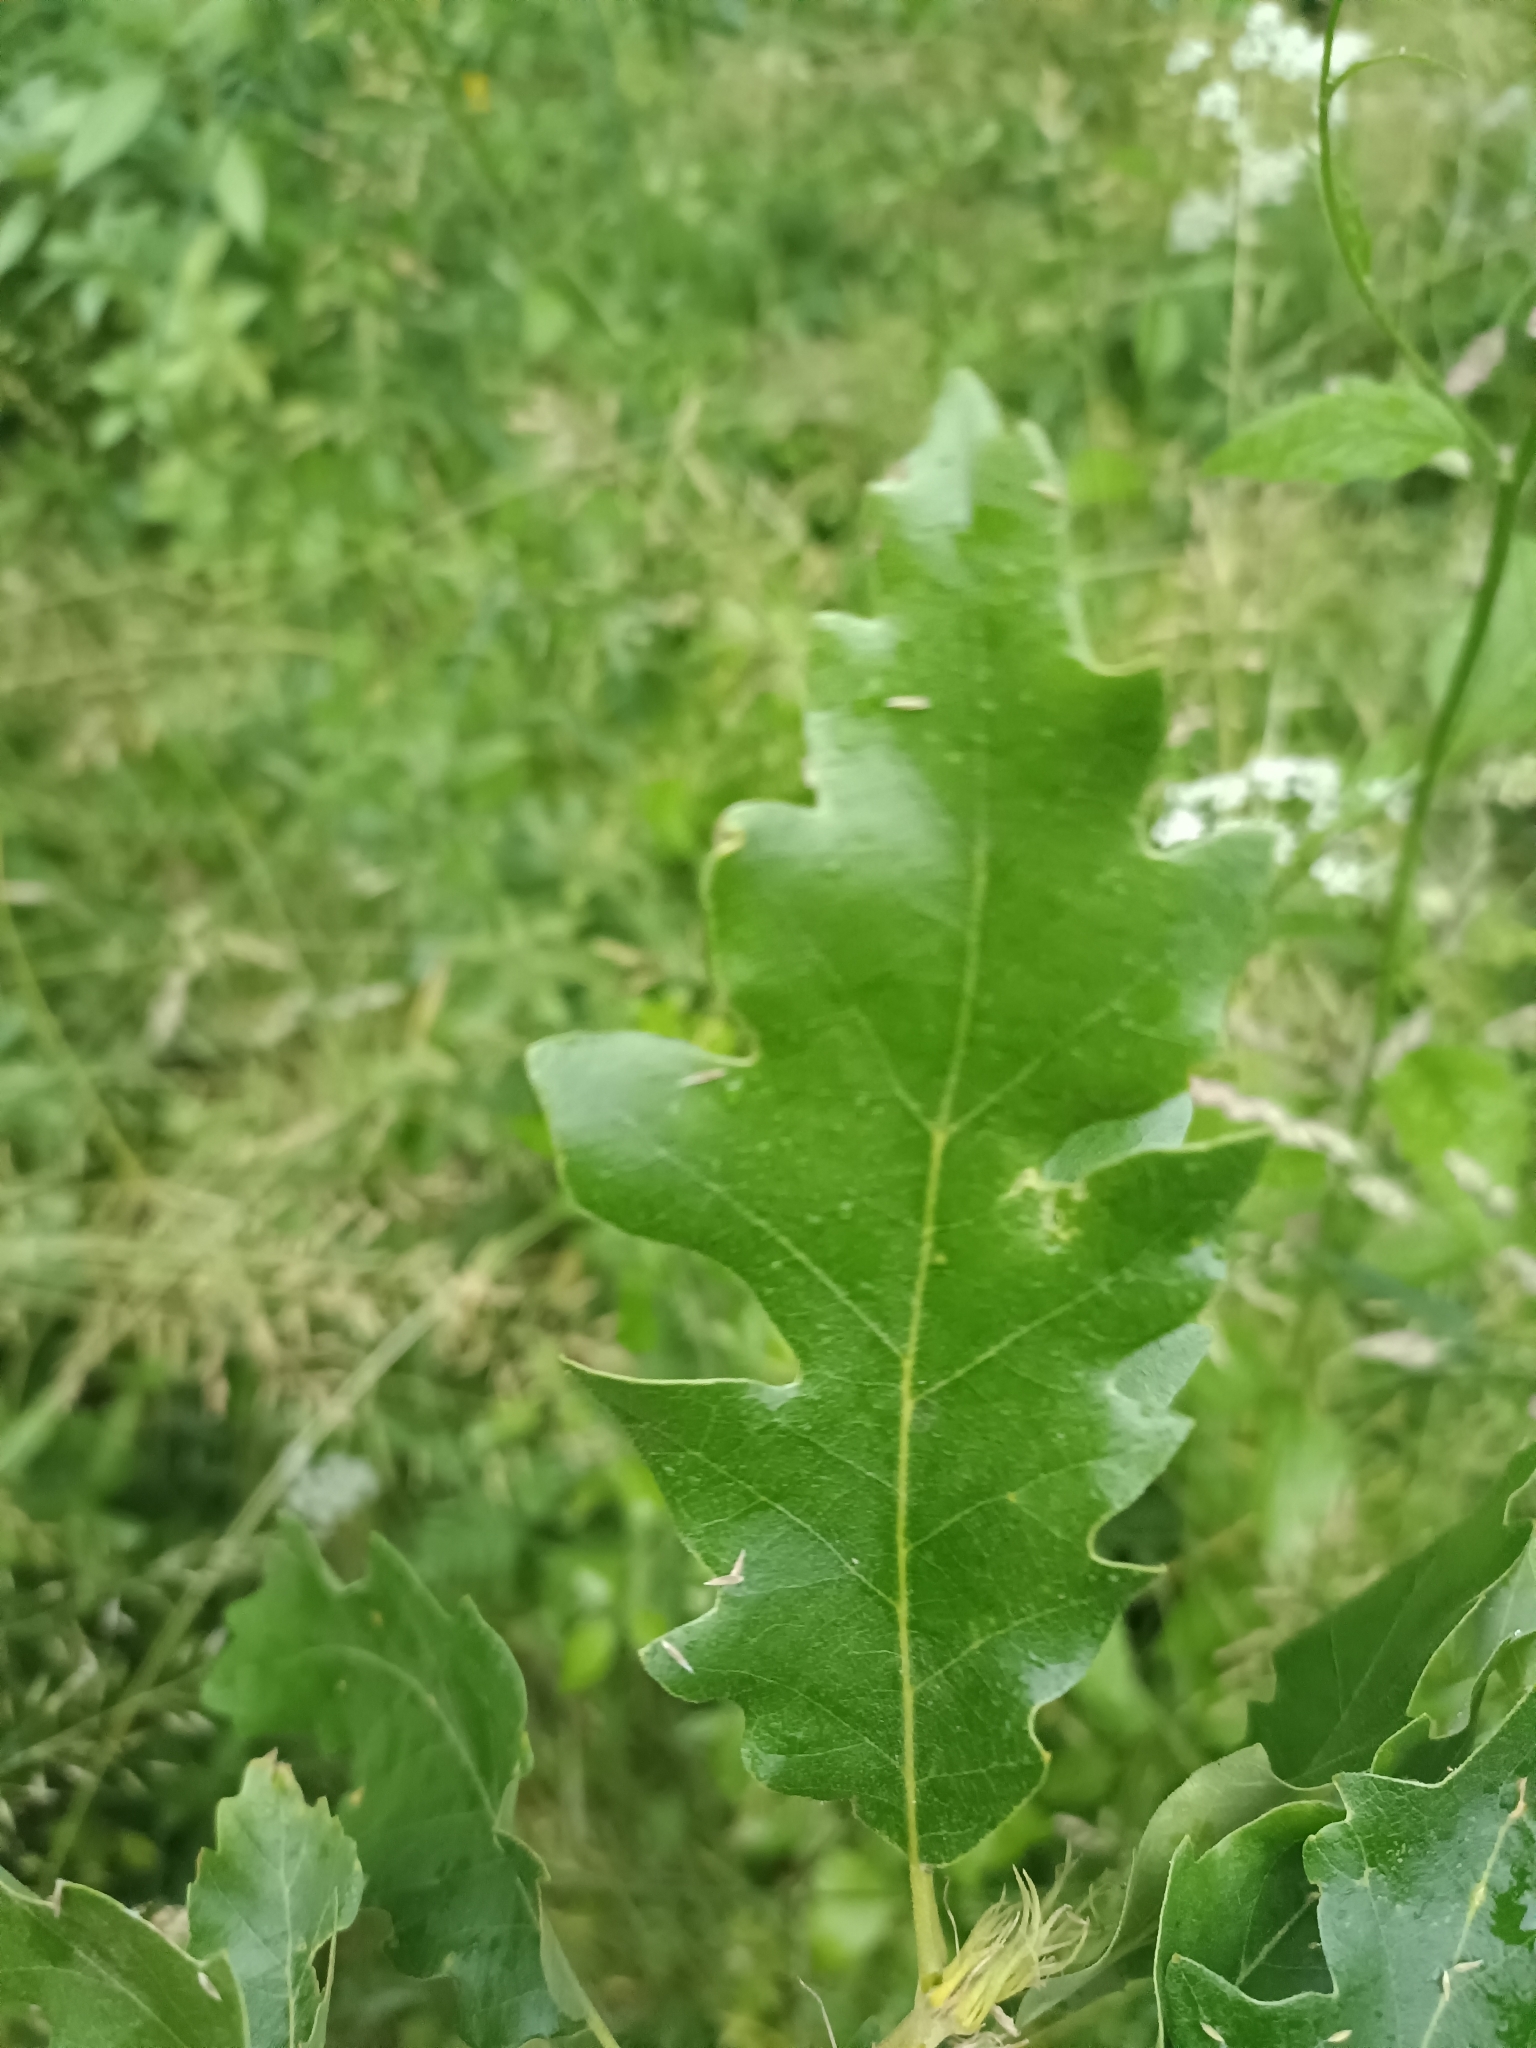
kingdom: Plantae
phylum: Tracheophyta
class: Magnoliopsida
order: Fagales
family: Fagaceae
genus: Quercus
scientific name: Quercus cerris
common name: Turkey oak
